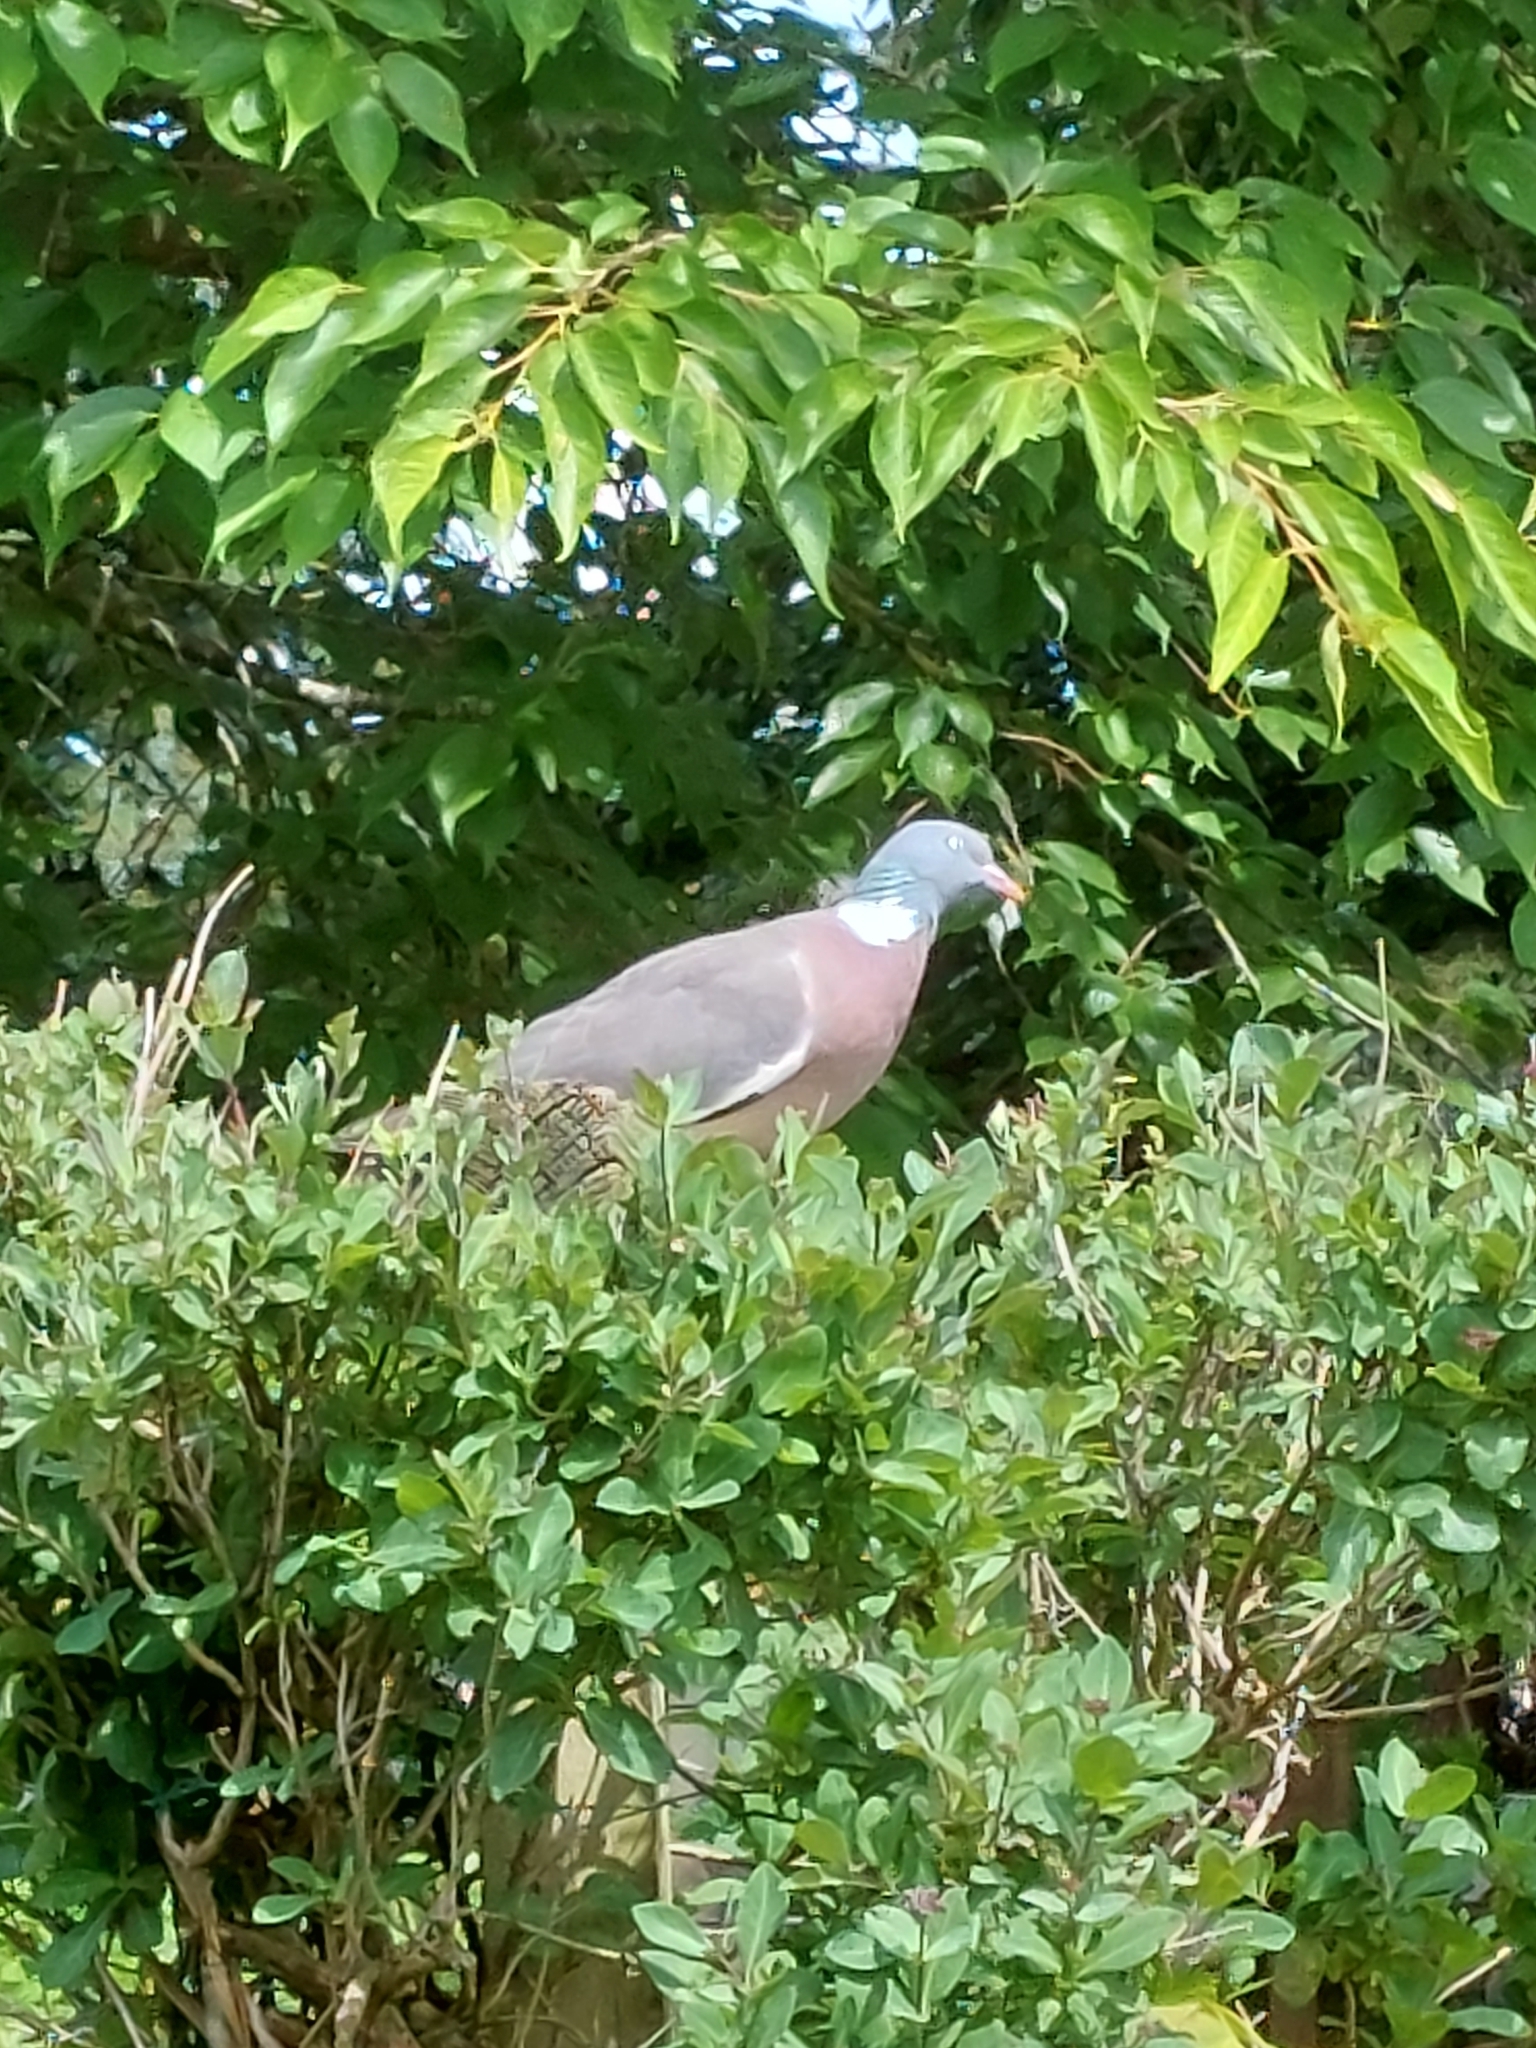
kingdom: Animalia
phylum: Chordata
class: Aves
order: Columbiformes
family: Columbidae
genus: Columba
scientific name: Columba palumbus
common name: Common wood pigeon
